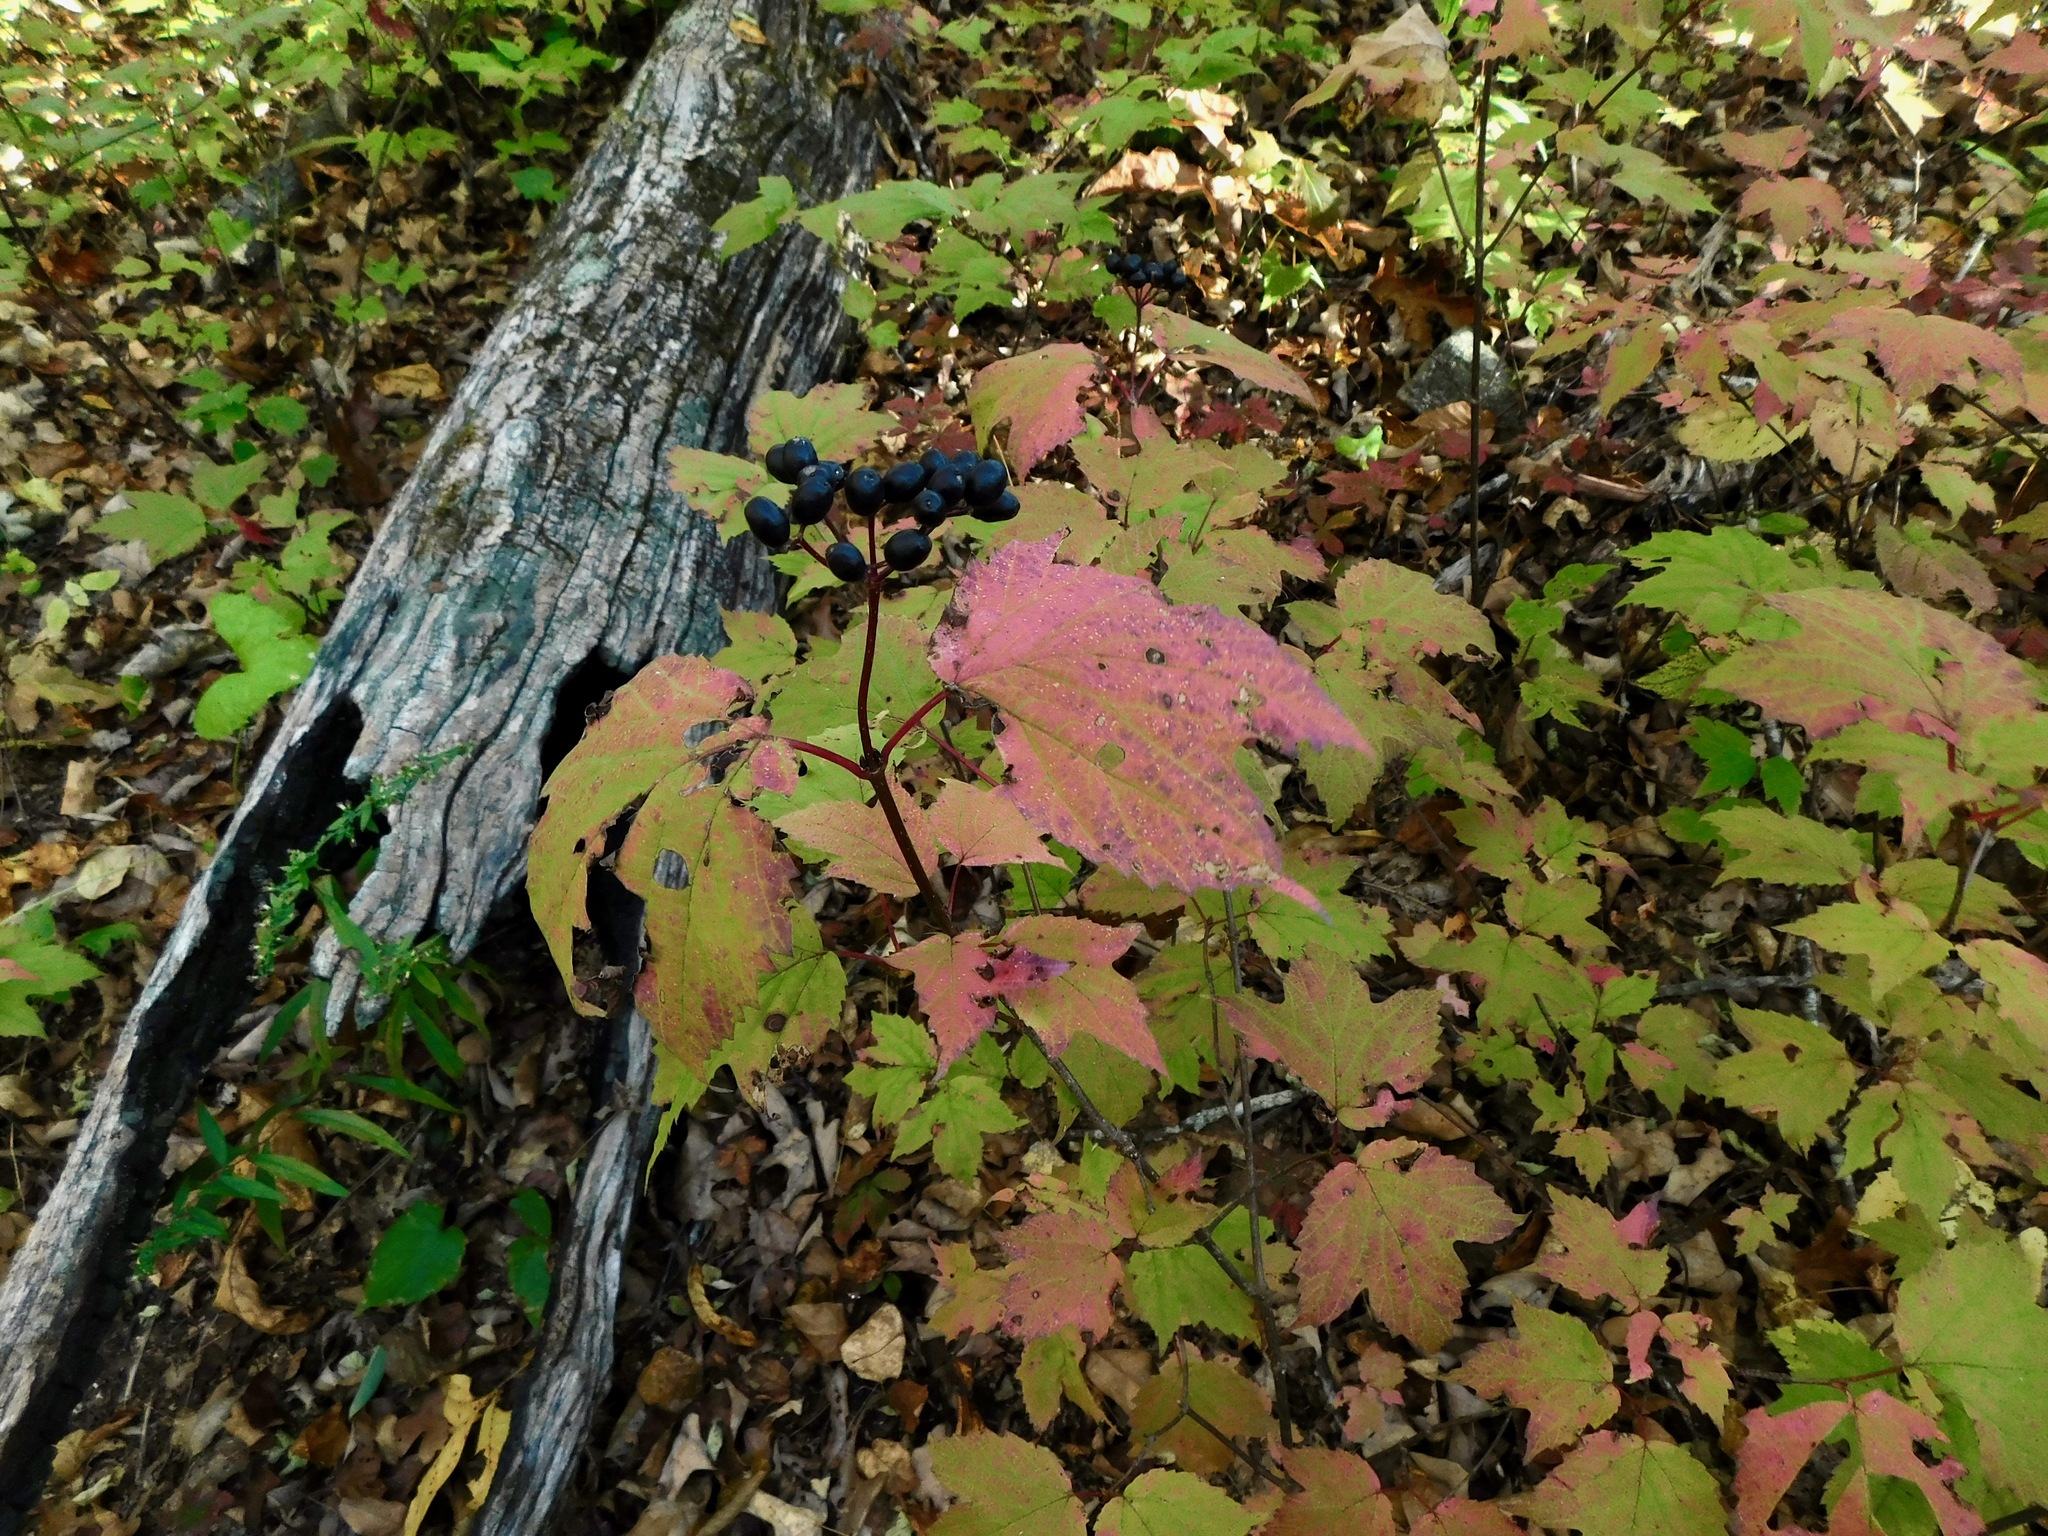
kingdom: Plantae
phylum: Tracheophyta
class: Magnoliopsida
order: Dipsacales
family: Viburnaceae
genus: Viburnum
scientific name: Viburnum acerifolium
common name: Dockmackie
